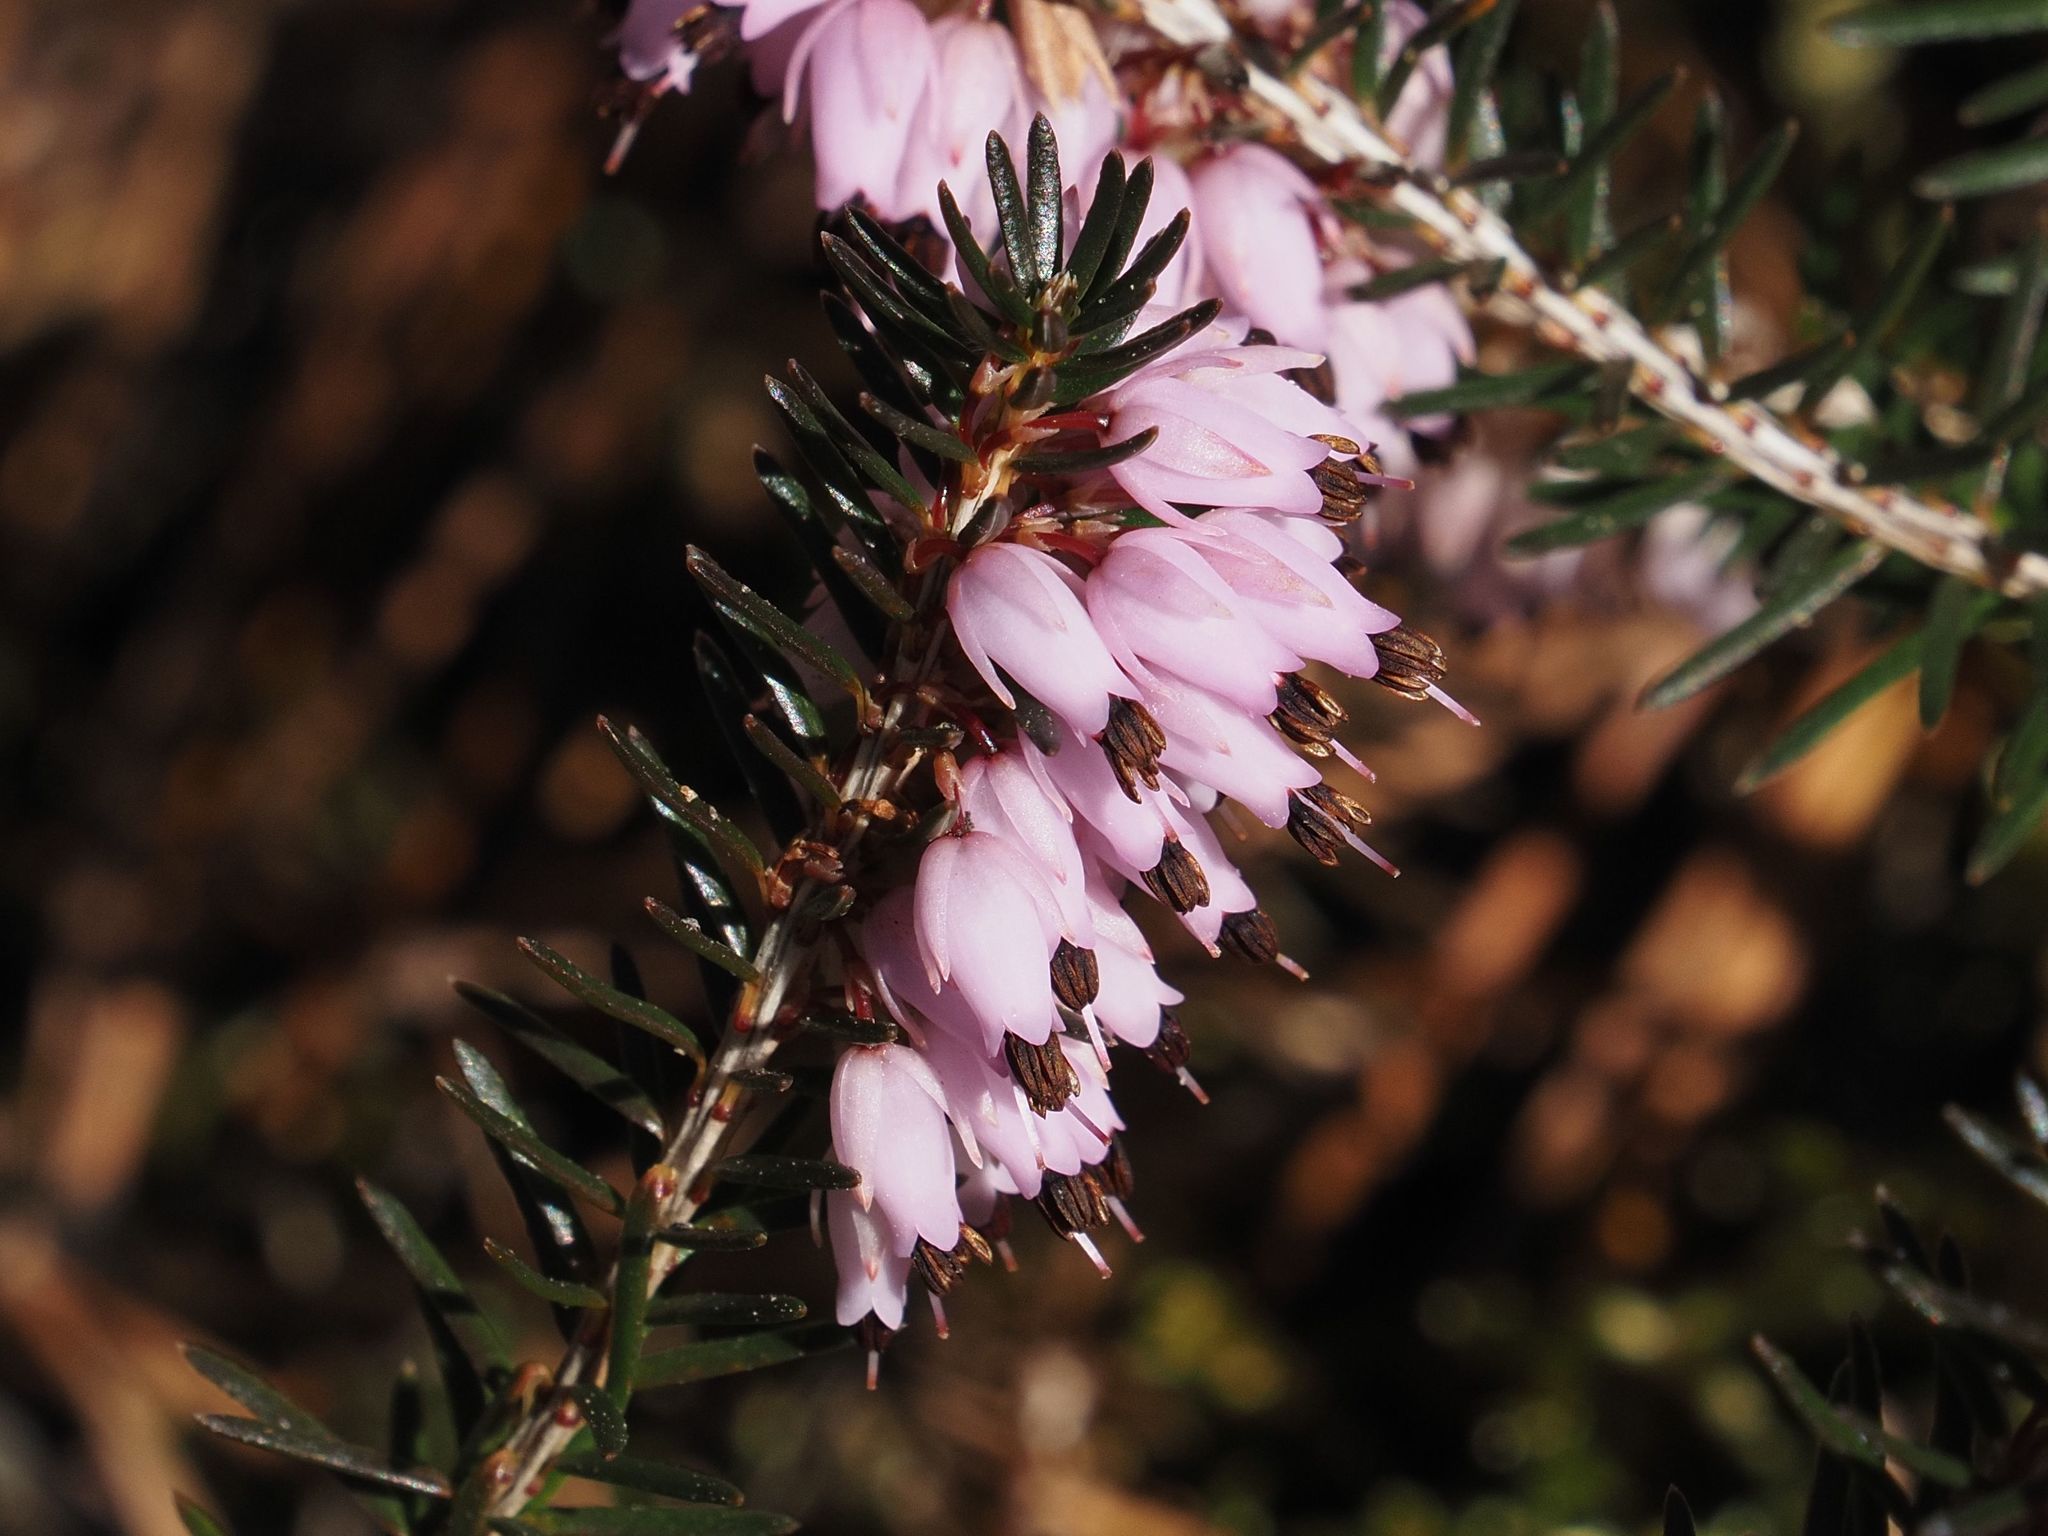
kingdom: Plantae
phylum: Tracheophyta
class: Magnoliopsida
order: Ericales
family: Ericaceae
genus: Erica
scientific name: Erica carnea
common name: Winter heath
